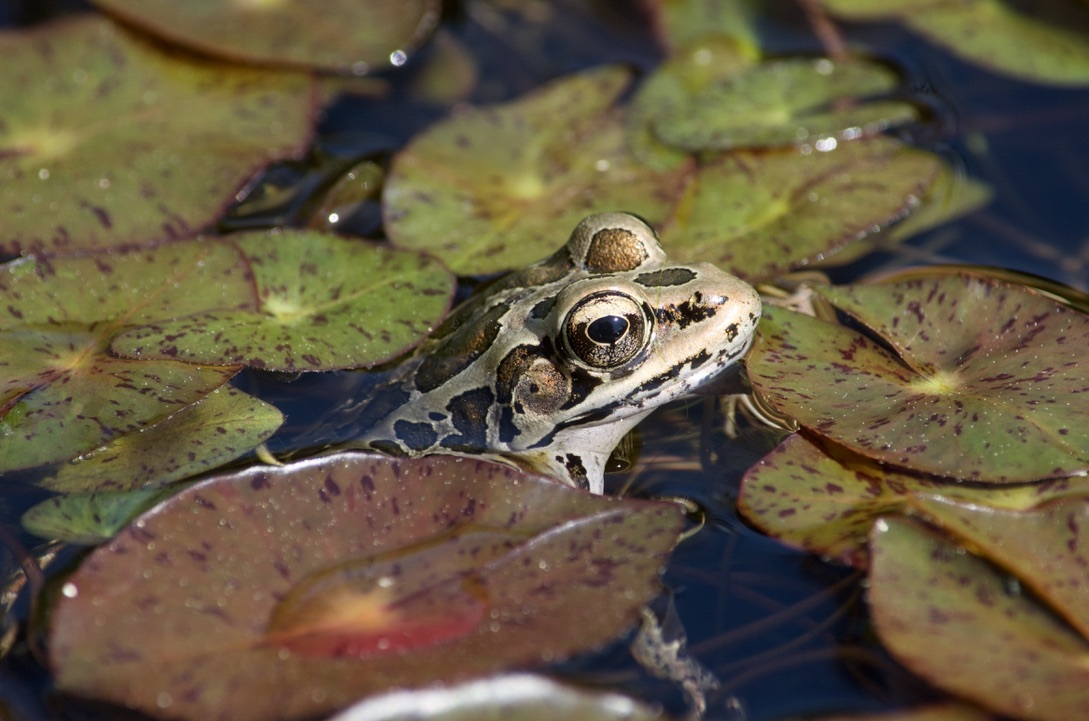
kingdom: Animalia
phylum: Chordata
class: Amphibia
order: Anura
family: Ranidae
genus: Lithobates
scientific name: Lithobates palustris
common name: Pickerel frog
